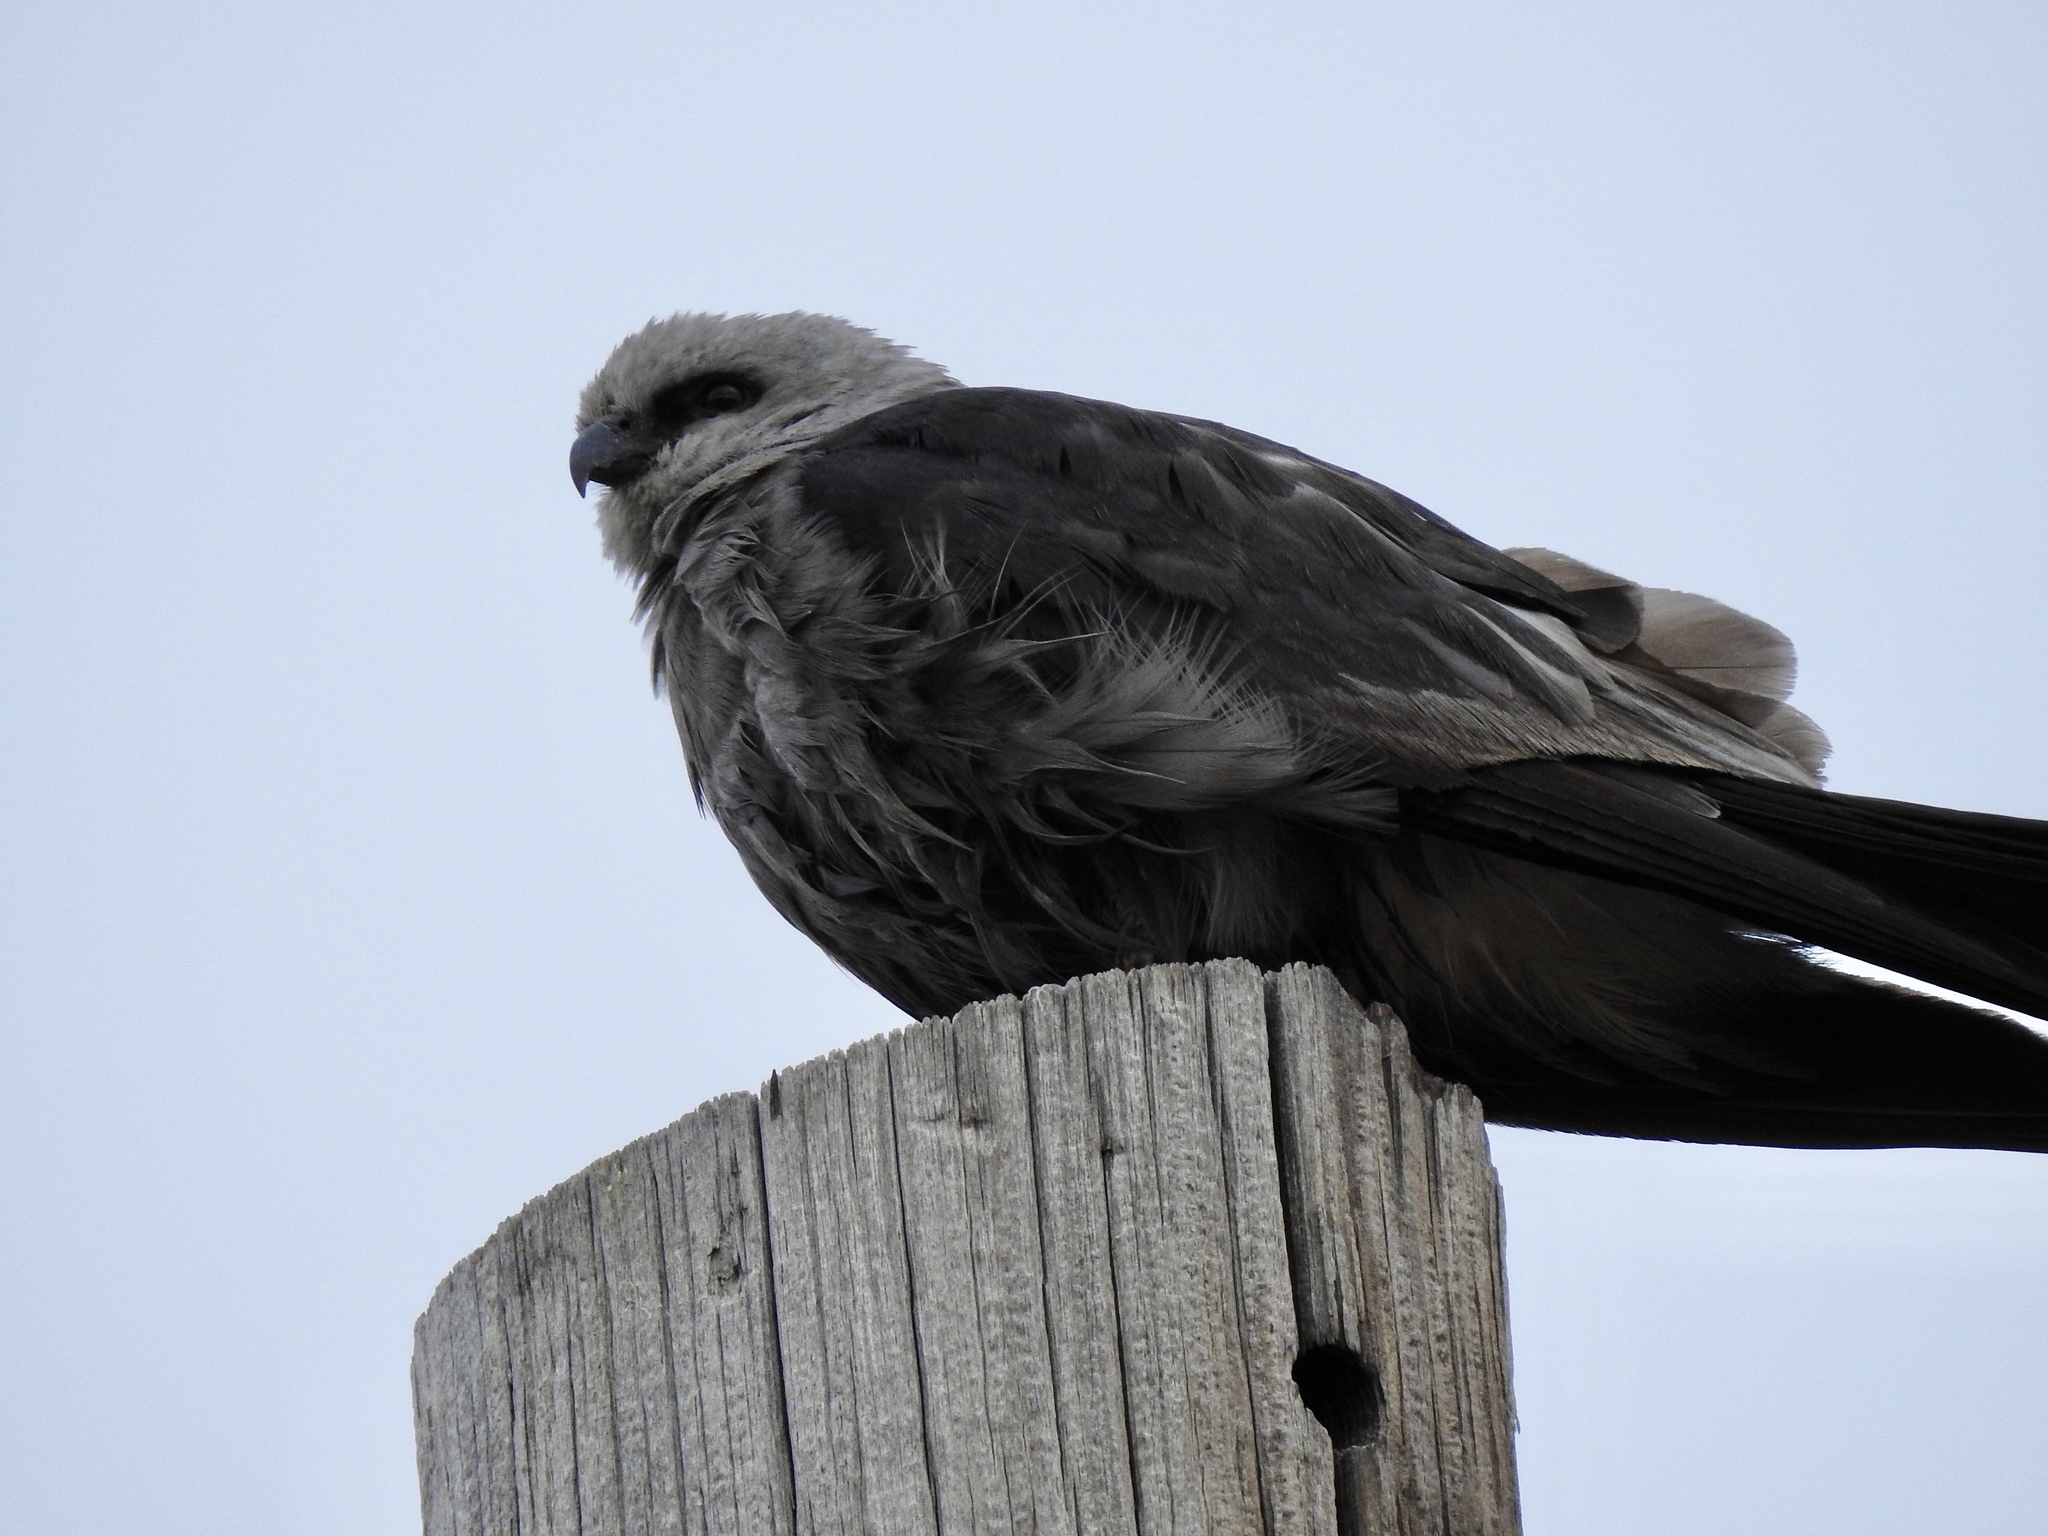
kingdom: Animalia
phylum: Chordata
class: Aves
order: Accipitriformes
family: Accipitridae
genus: Ictinia
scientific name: Ictinia mississippiensis
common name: Mississippi kite
